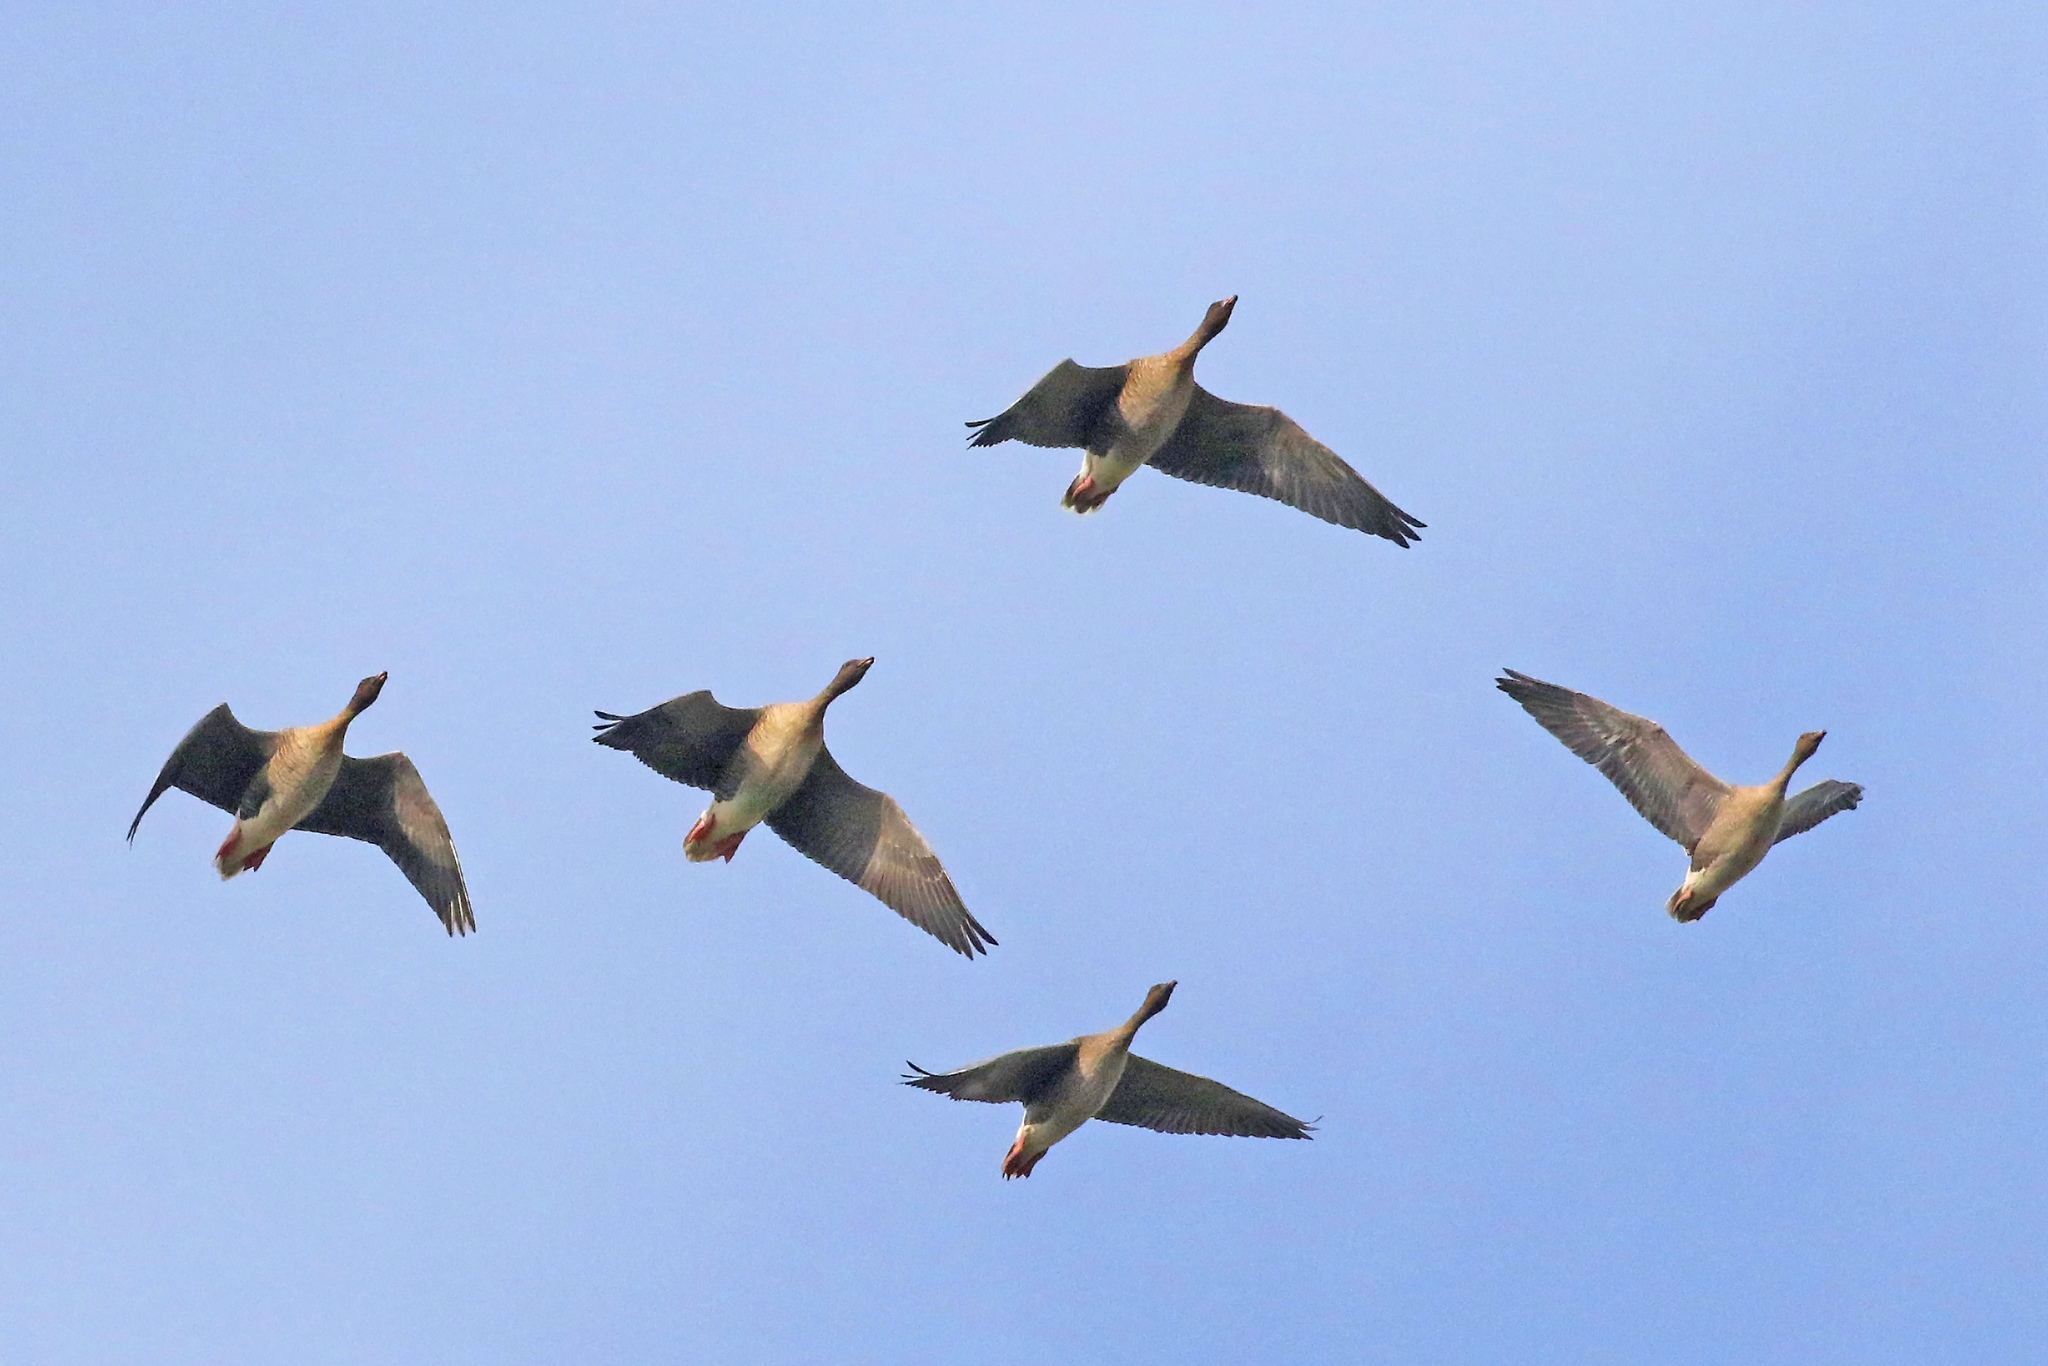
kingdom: Animalia
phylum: Chordata
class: Aves
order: Anseriformes
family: Anatidae
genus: Anser
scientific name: Anser brachyrhynchus
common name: Pink-footed goose
